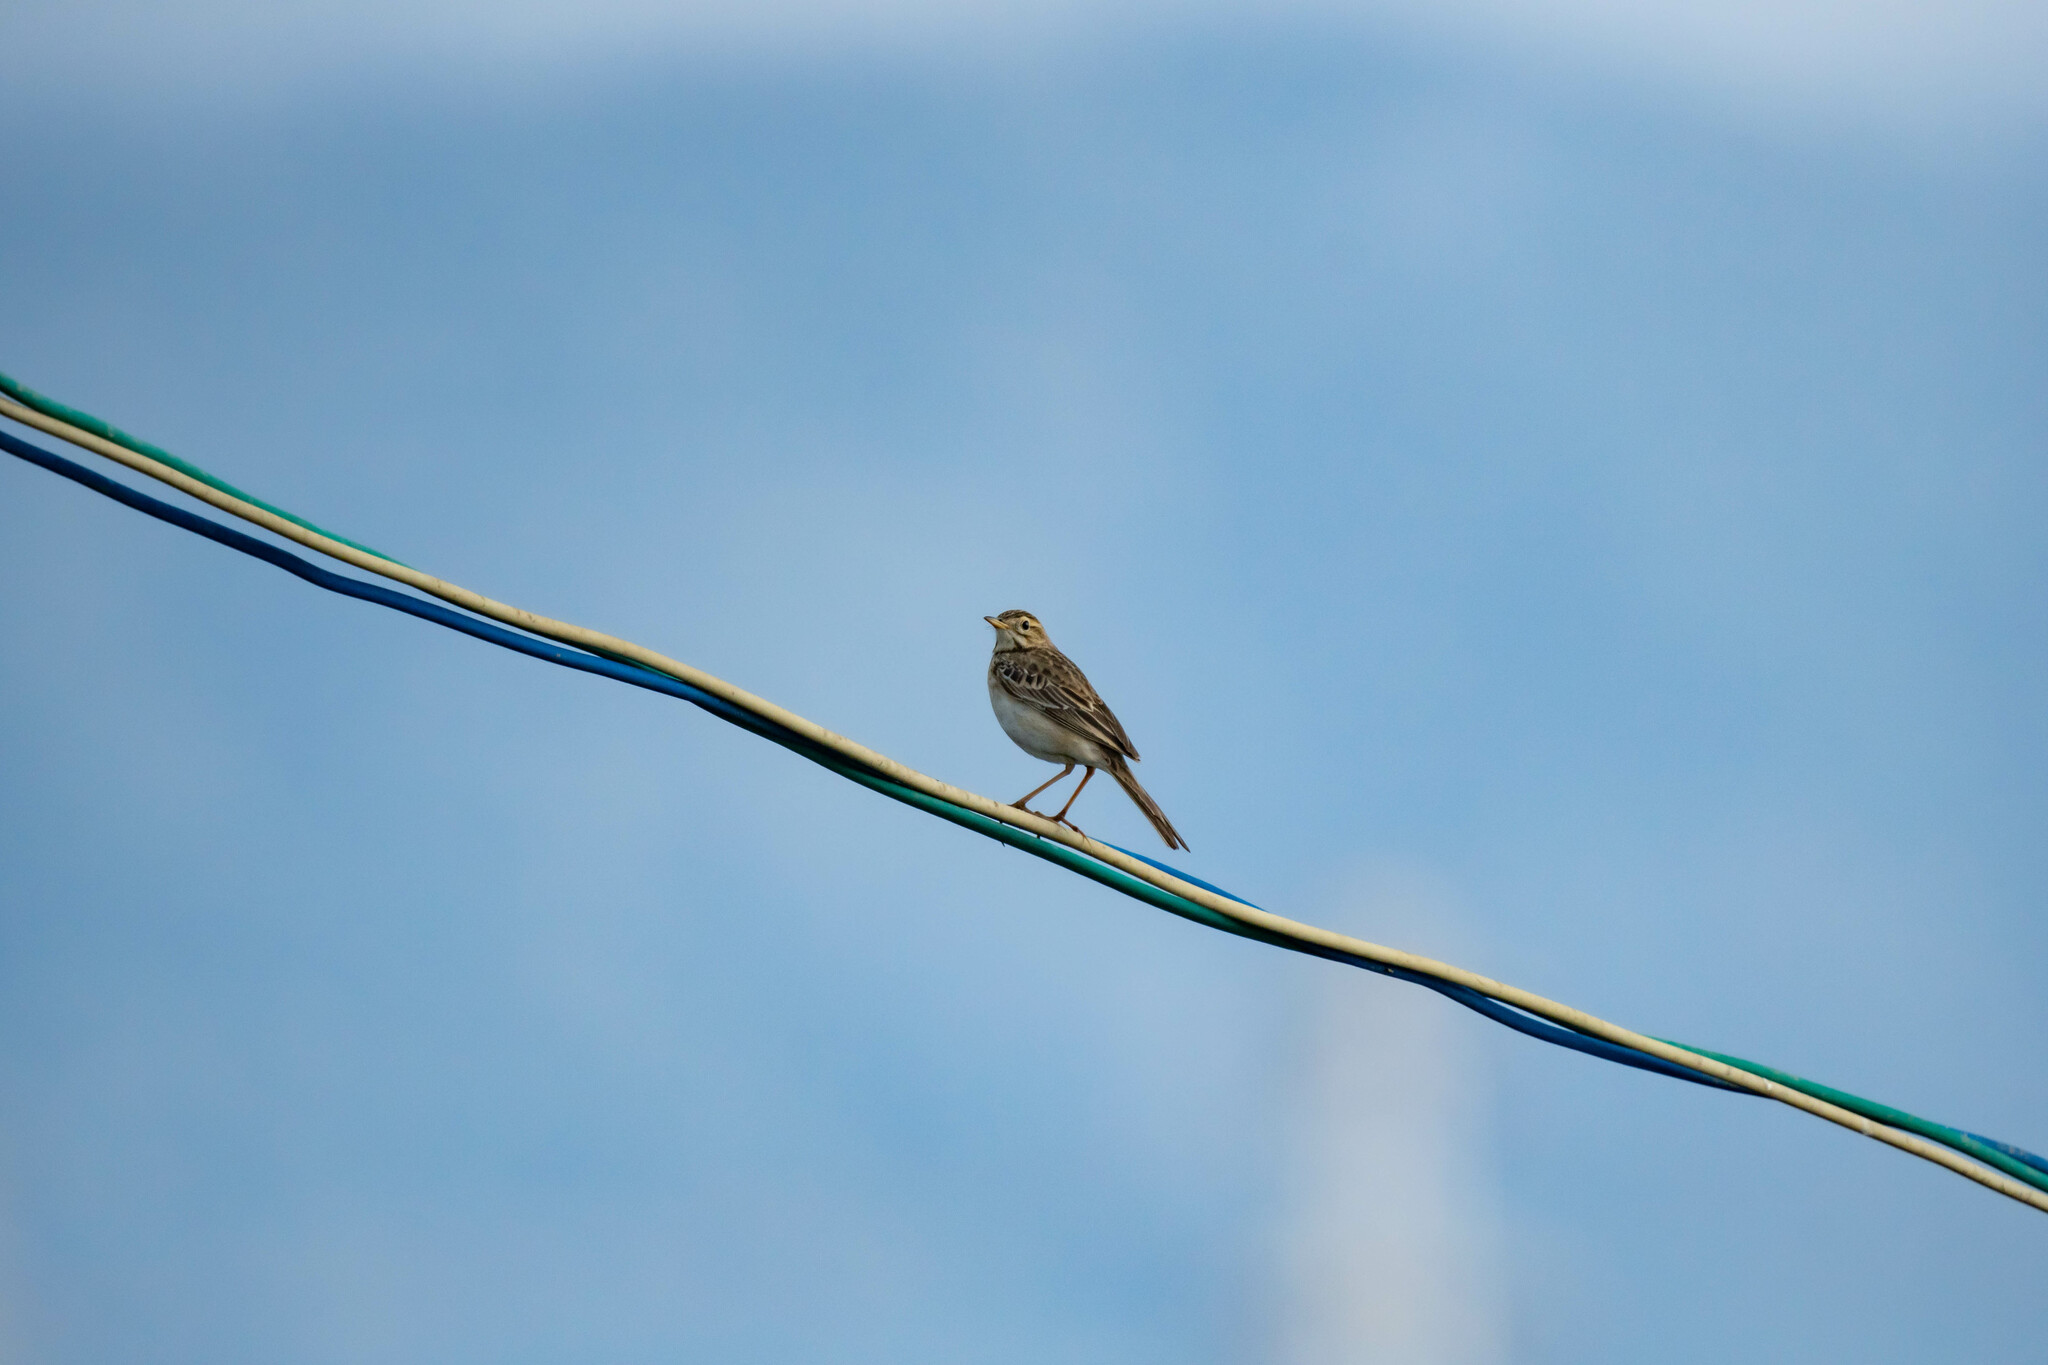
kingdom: Animalia
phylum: Chordata
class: Aves
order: Passeriformes
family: Motacillidae
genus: Anthus
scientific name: Anthus richardi
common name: Richard's pipit
